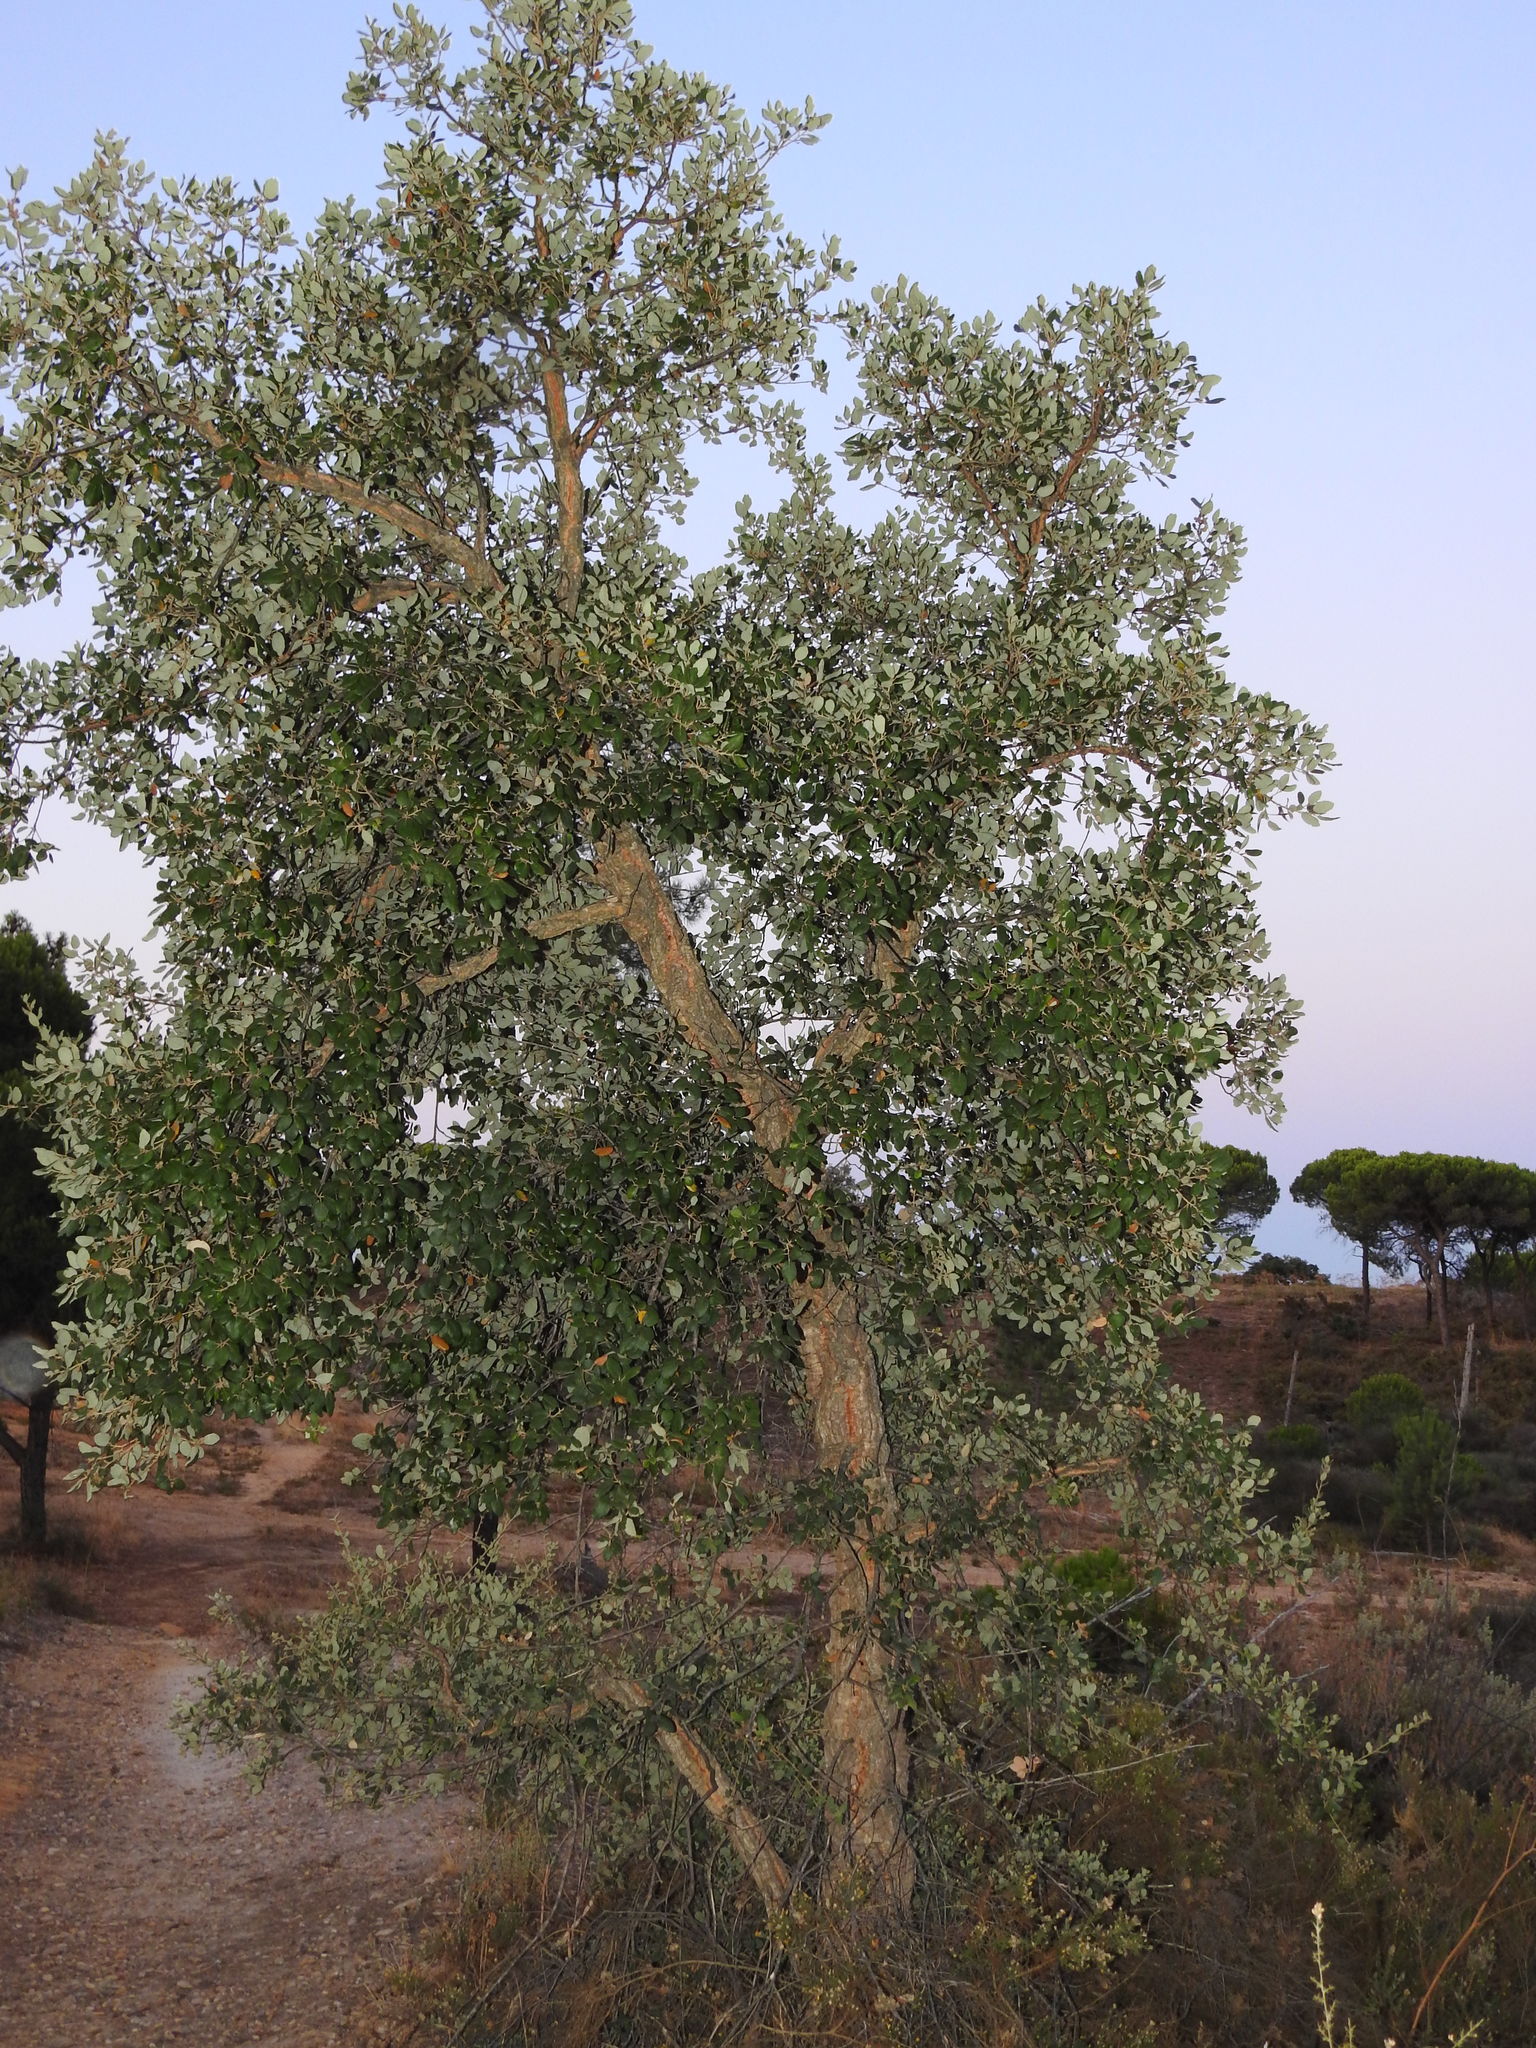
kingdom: Plantae
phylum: Tracheophyta
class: Magnoliopsida
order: Fagales
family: Fagaceae
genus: Quercus
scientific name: Quercus suber
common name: Cork oak
